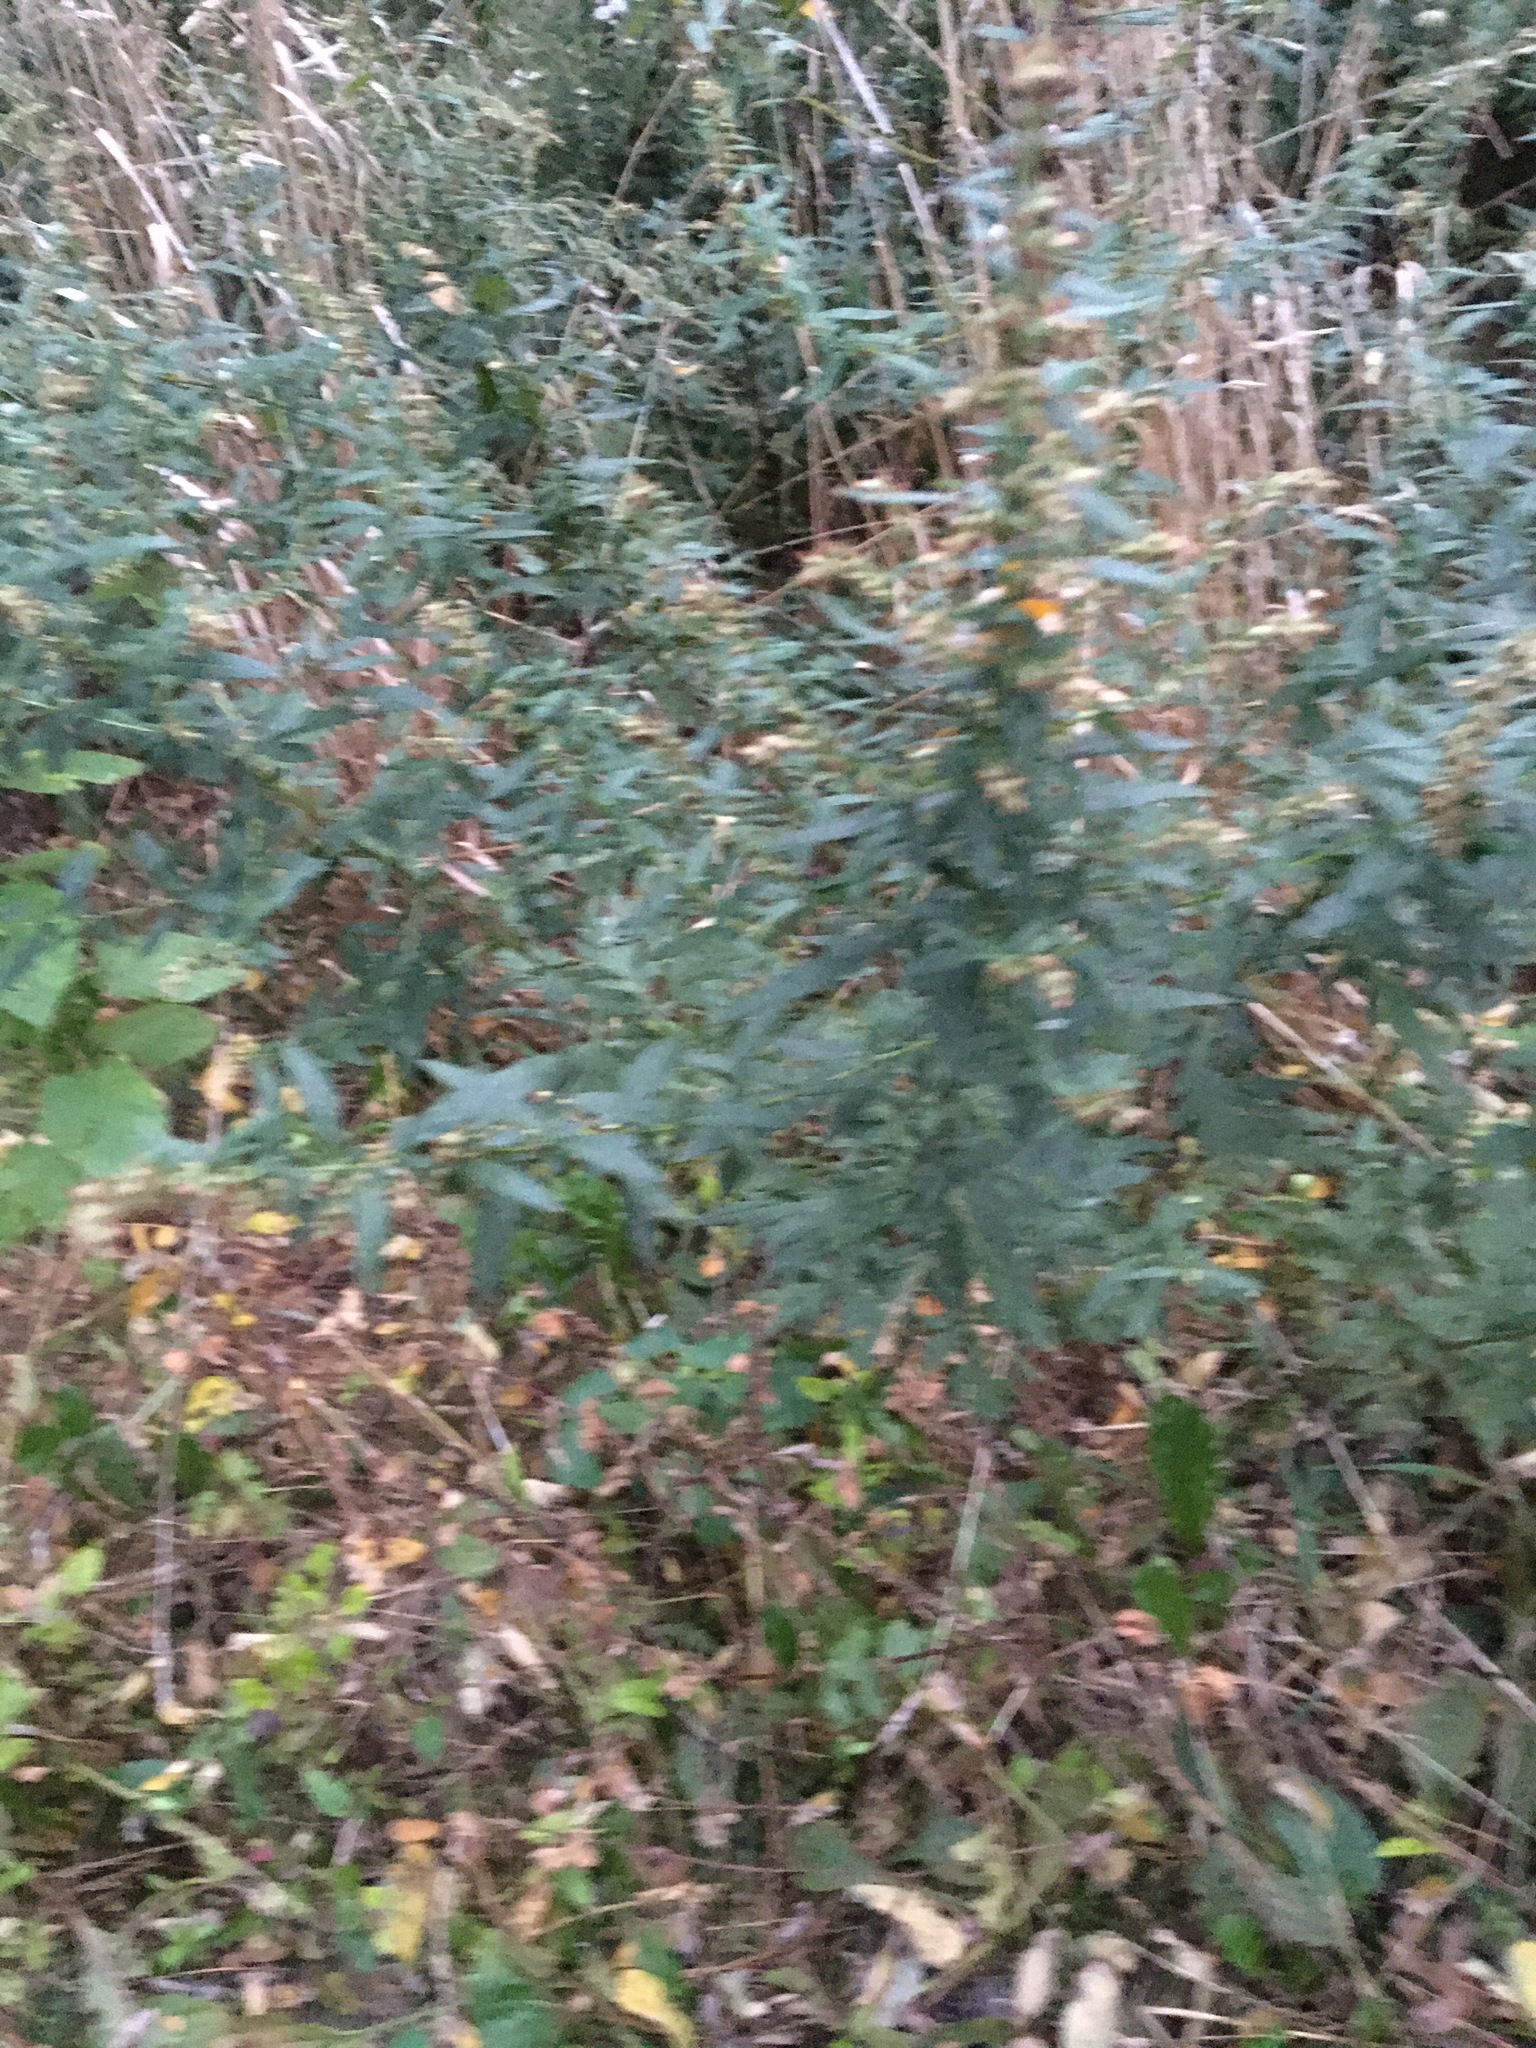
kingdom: Plantae
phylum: Tracheophyta
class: Magnoliopsida
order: Asterales
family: Asteraceae
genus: Artemisia
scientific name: Artemisia vulgaris
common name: Mugwort
